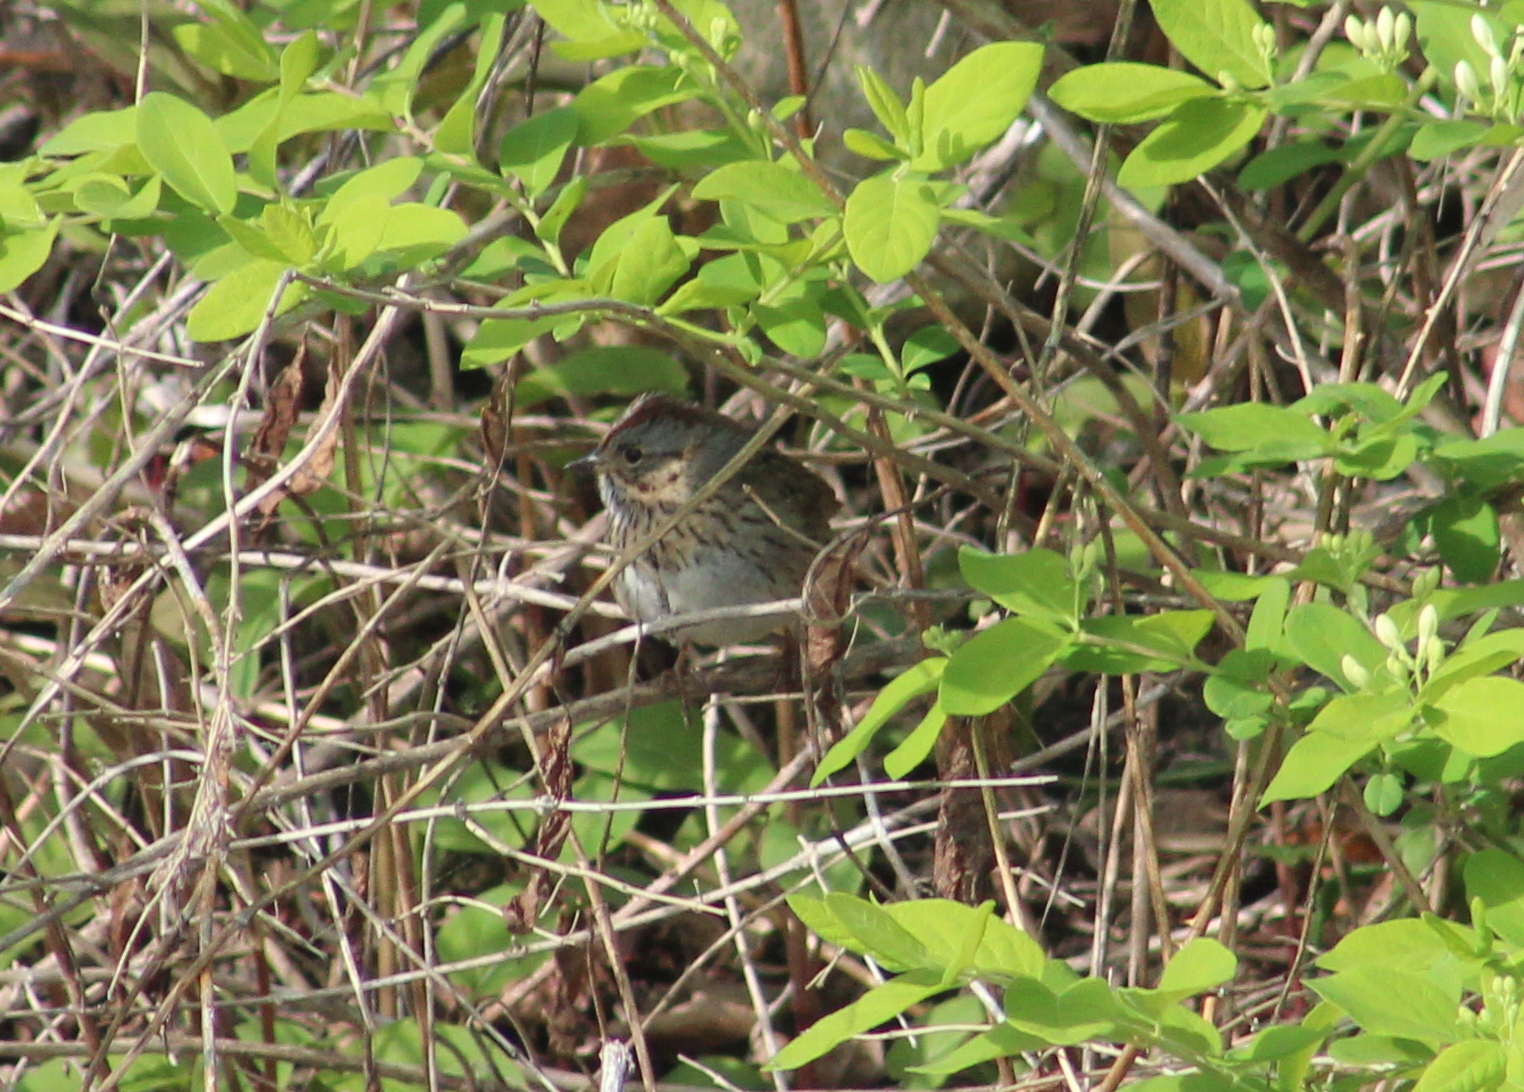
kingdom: Animalia
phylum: Chordata
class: Aves
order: Passeriformes
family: Passerellidae
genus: Melospiza
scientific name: Melospiza lincolnii
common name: Lincoln's sparrow
